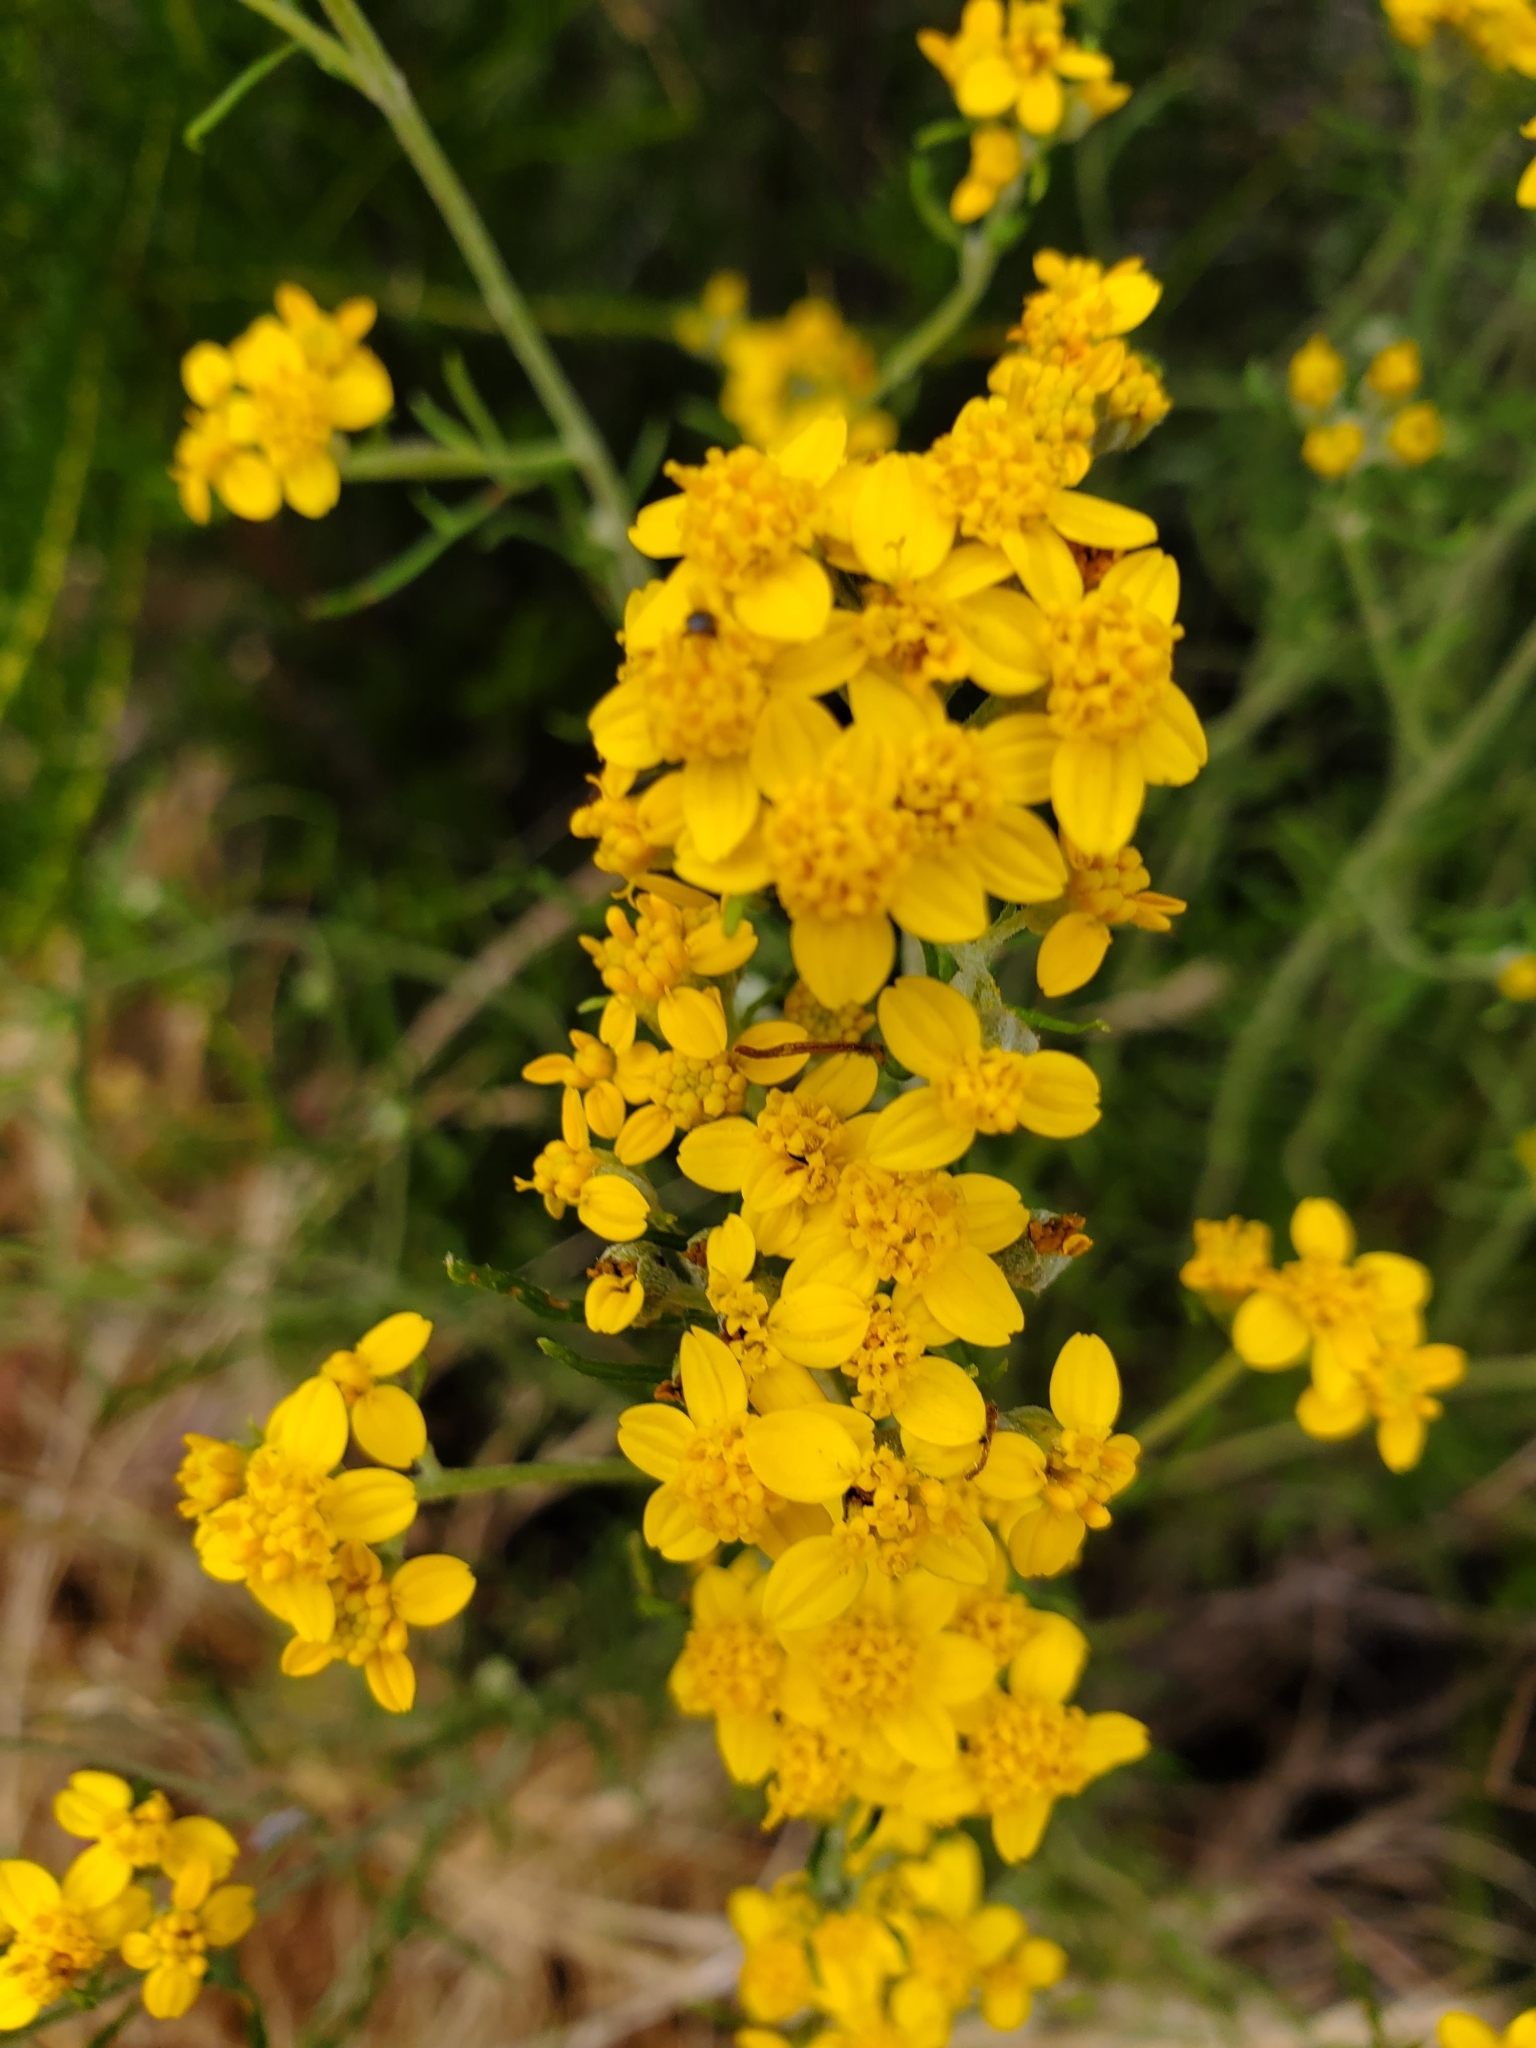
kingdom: Plantae
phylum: Tracheophyta
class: Magnoliopsida
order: Asterales
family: Asteraceae
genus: Eriophyllum
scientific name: Eriophyllum confertiflorum
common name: Golden-yarrow
